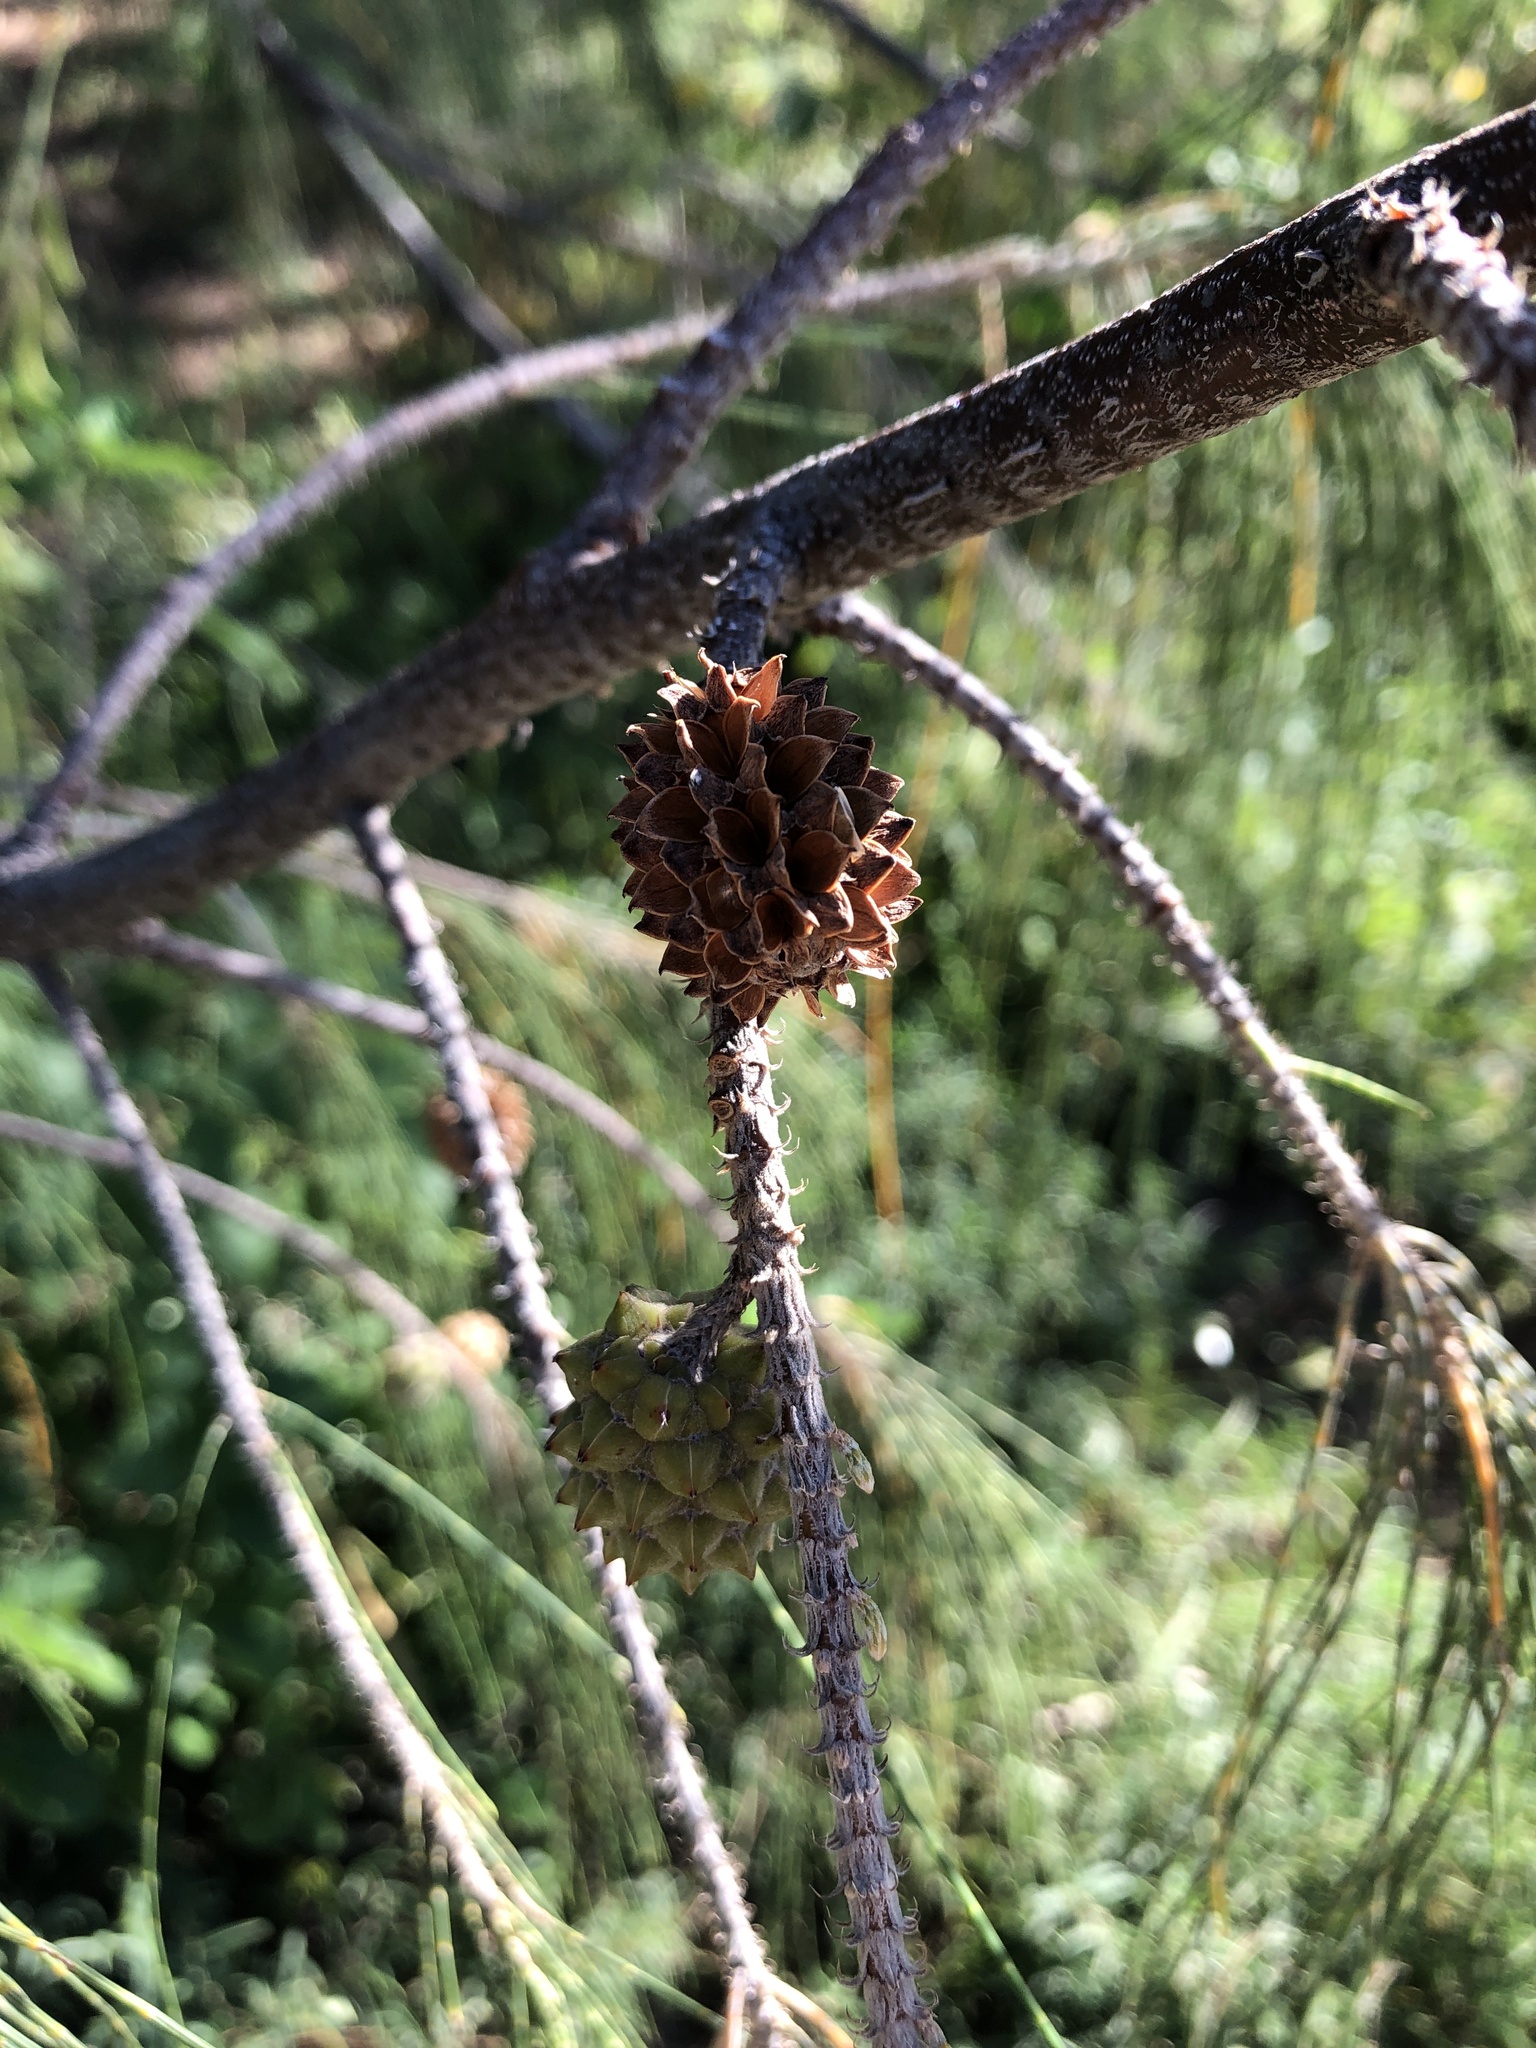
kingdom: Plantae
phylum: Tracheophyta
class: Magnoliopsida
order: Fagales
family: Casuarinaceae
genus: Casuarina
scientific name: Casuarina equisetifolia
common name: Beach sheoak
